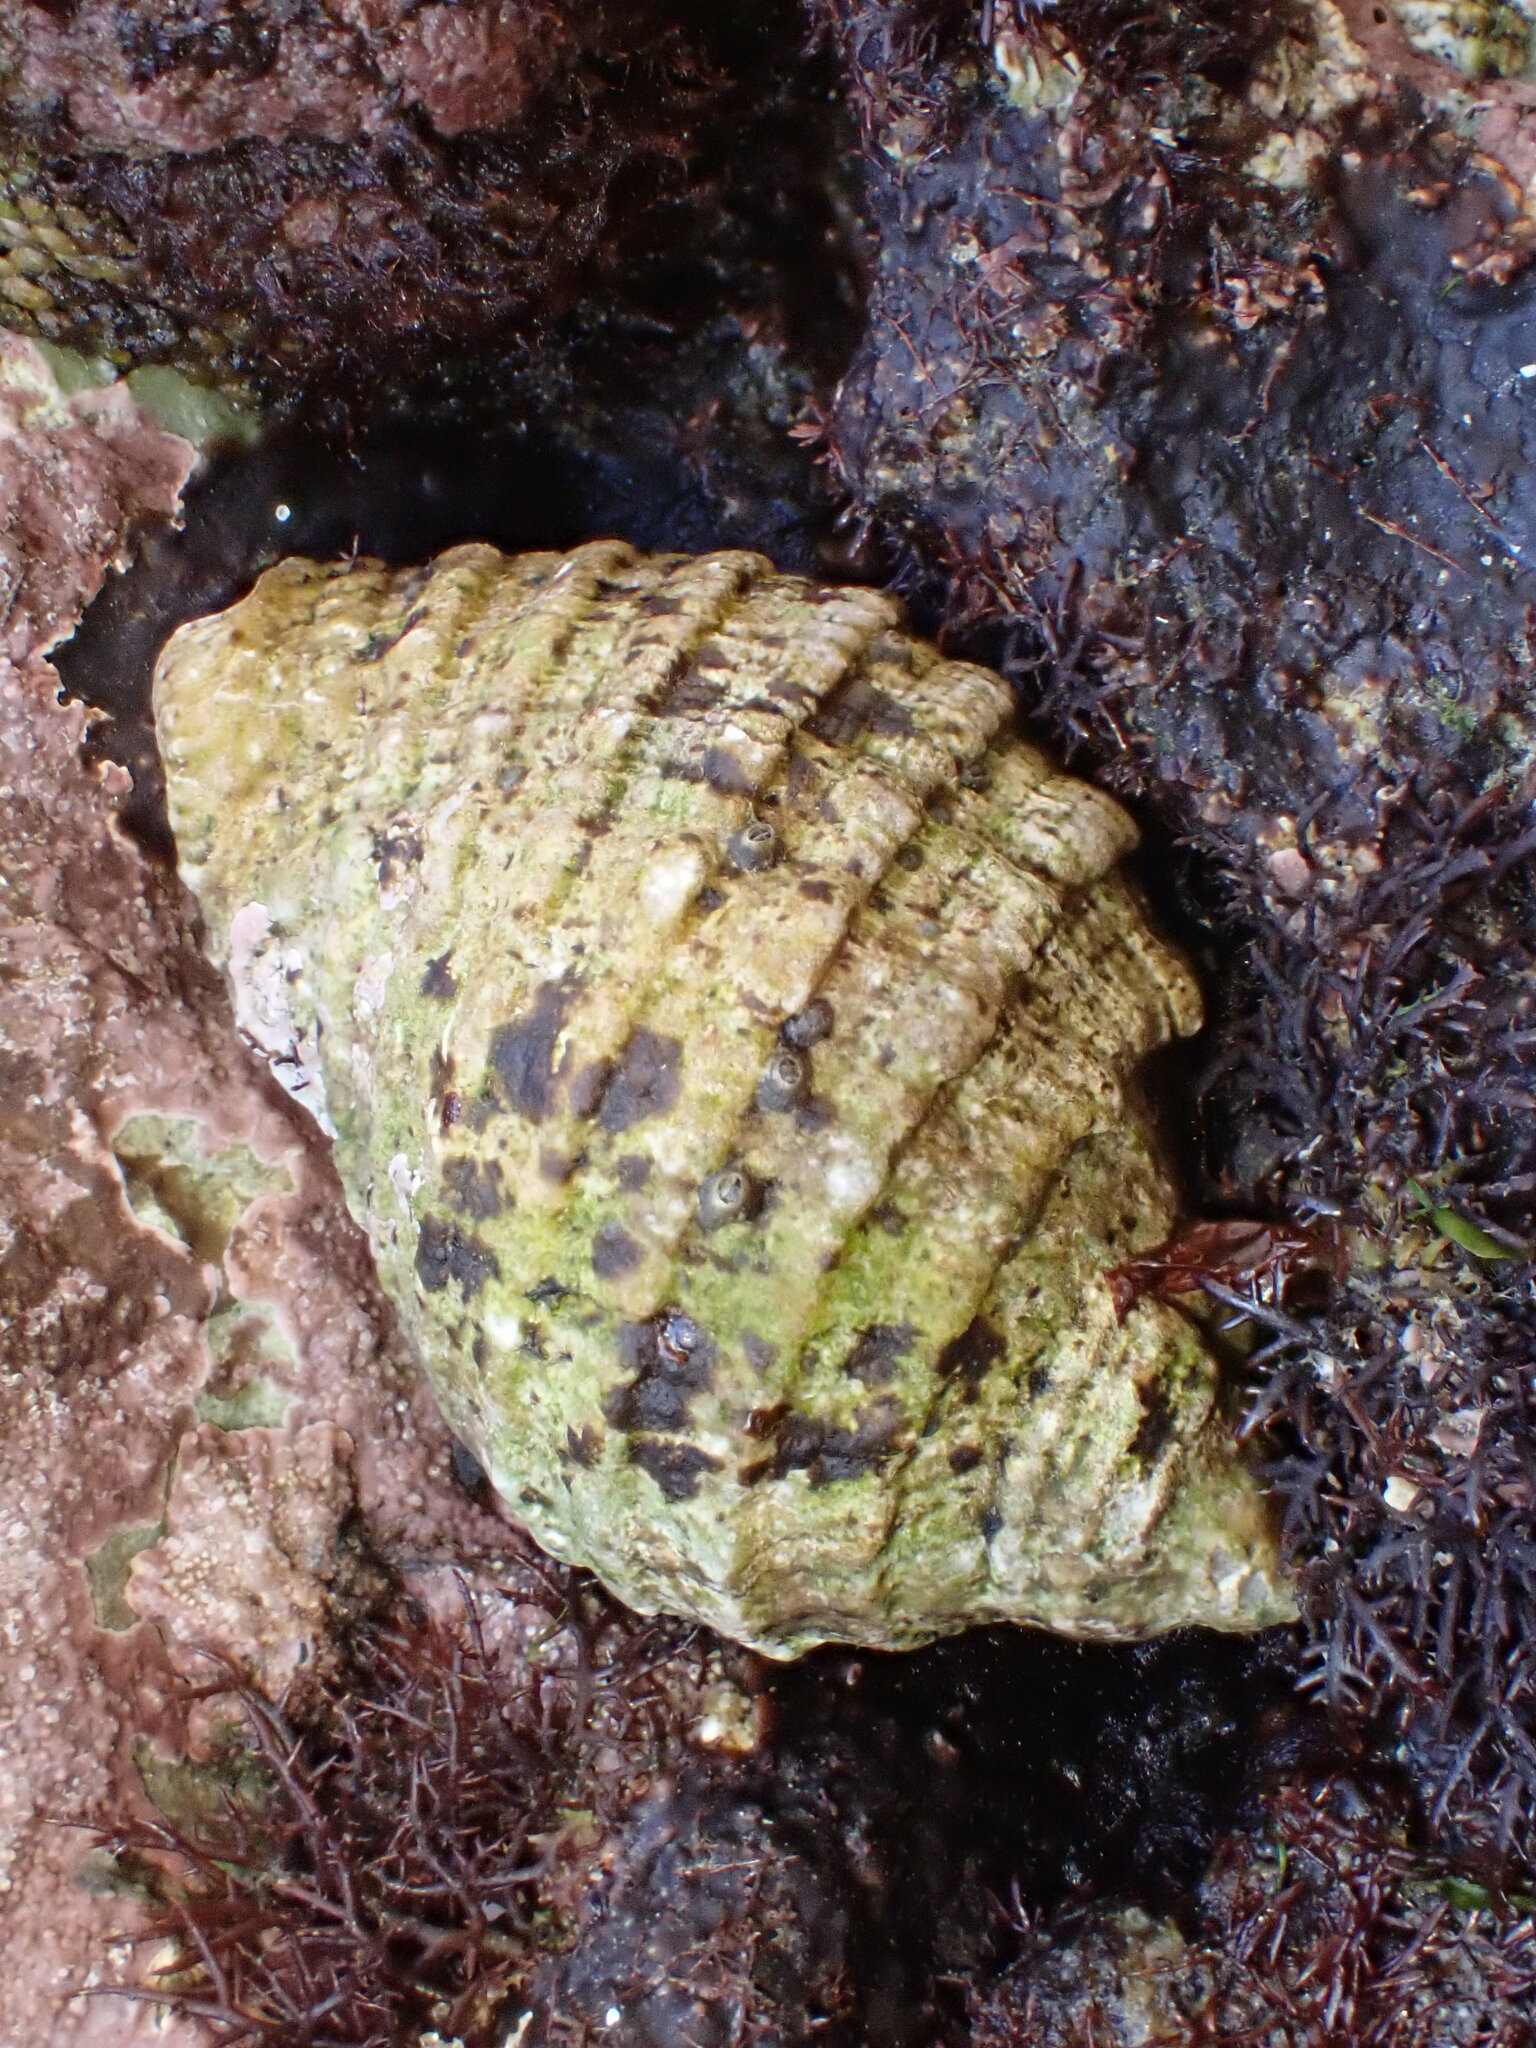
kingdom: Animalia
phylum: Mollusca
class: Gastropoda
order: Neogastropoda
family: Muricidae
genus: Dicathais
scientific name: Dicathais orbita
